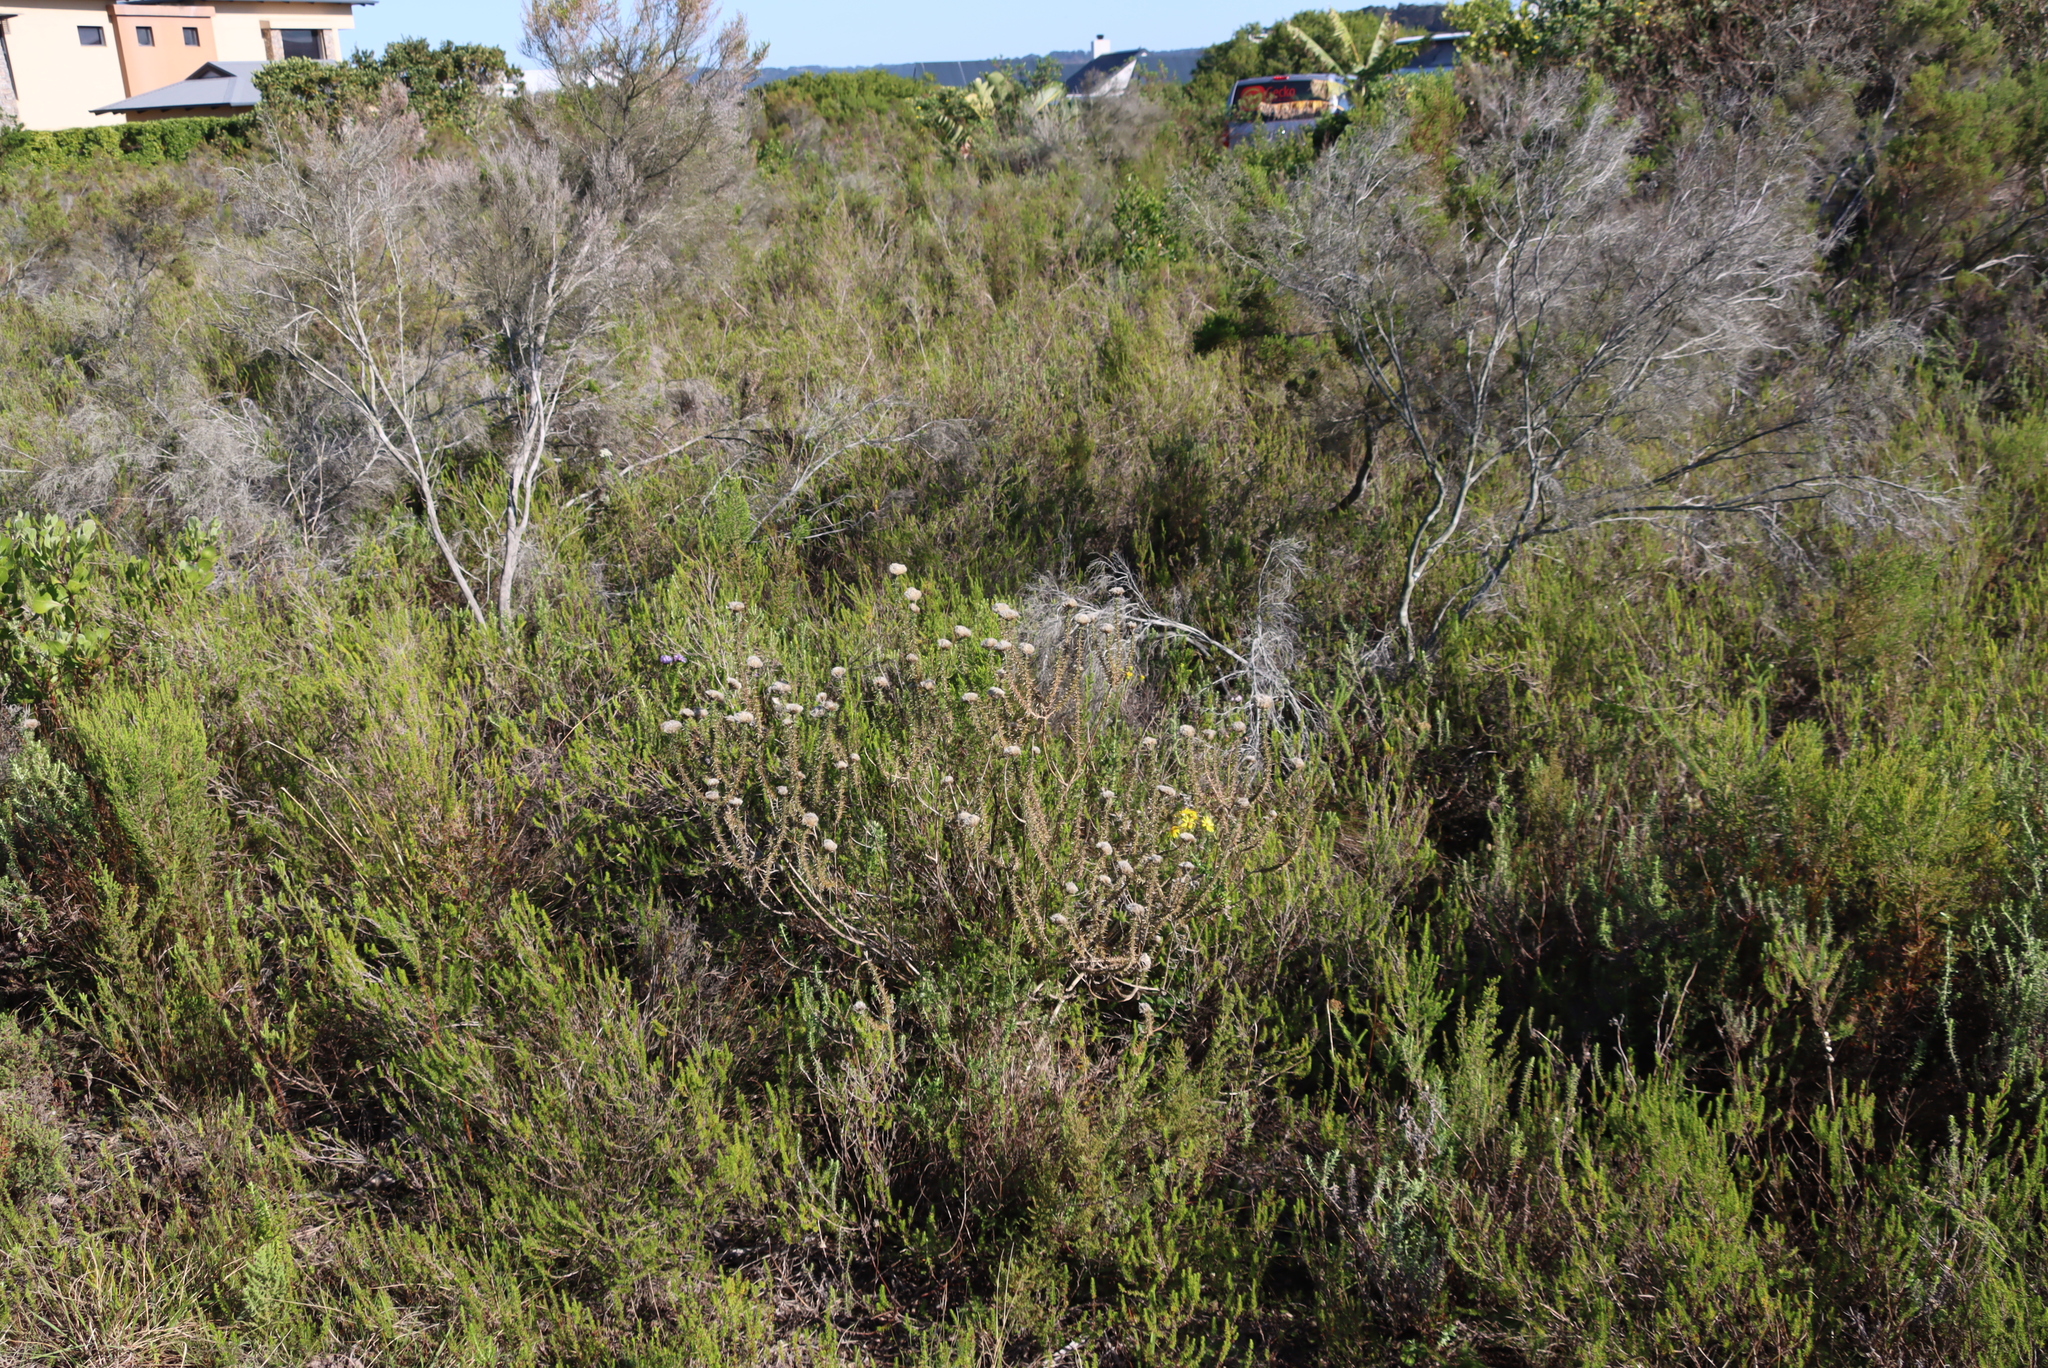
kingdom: Plantae
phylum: Tracheophyta
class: Magnoliopsida
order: Asterales
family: Asteraceae
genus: Metalasia
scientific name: Metalasia pungens
